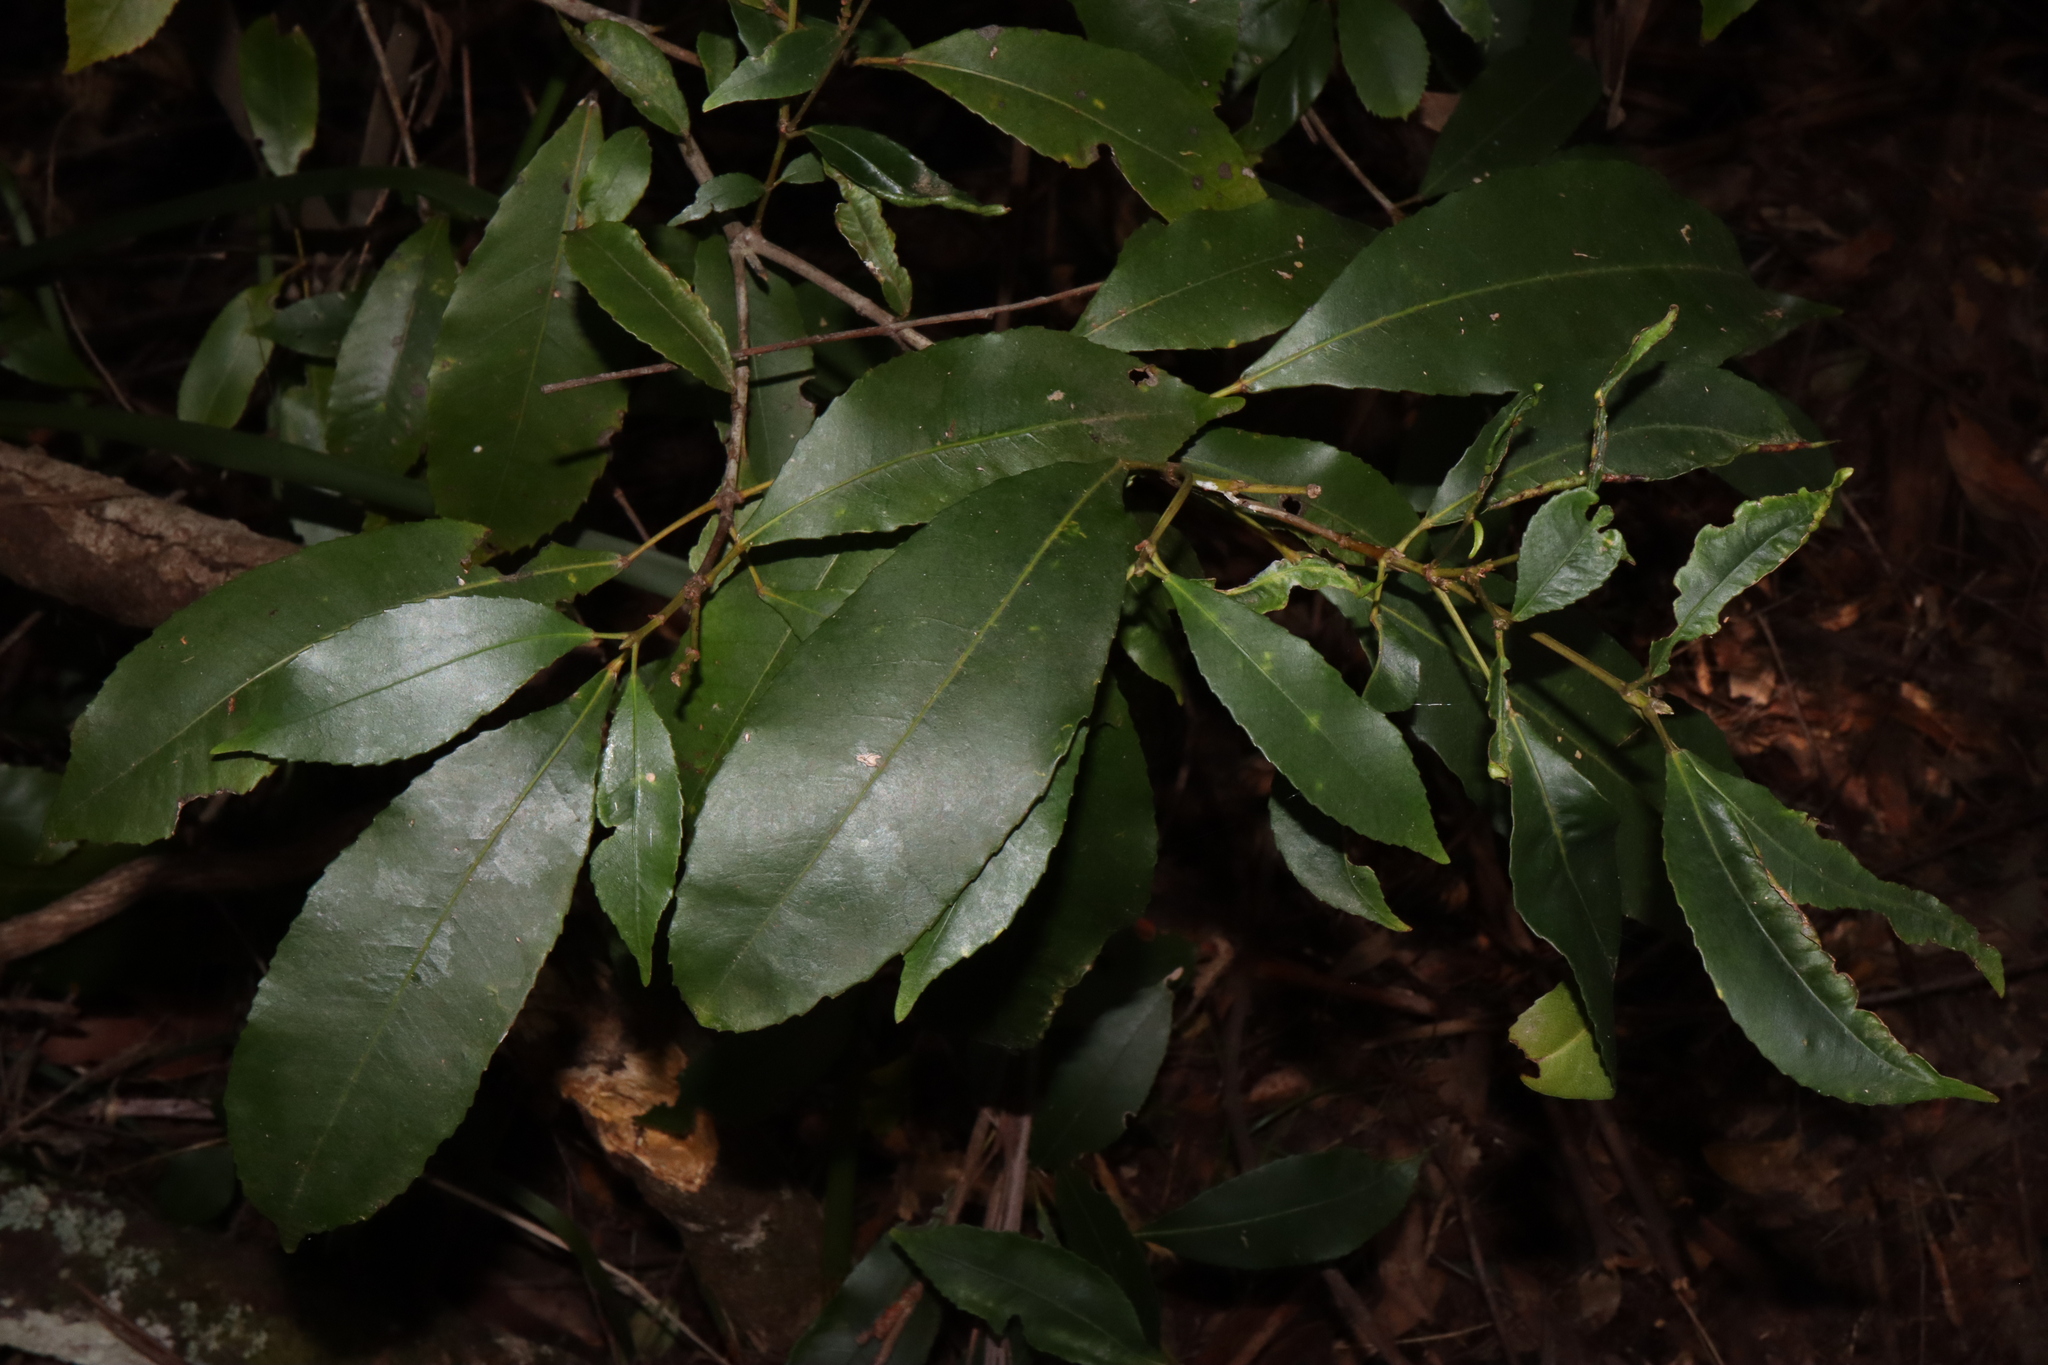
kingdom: Plantae
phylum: Tracheophyta
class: Magnoliopsida
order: Oxalidales
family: Cunoniaceae
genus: Ceratopetalum
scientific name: Ceratopetalum apetalum
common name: Scented satinwood
